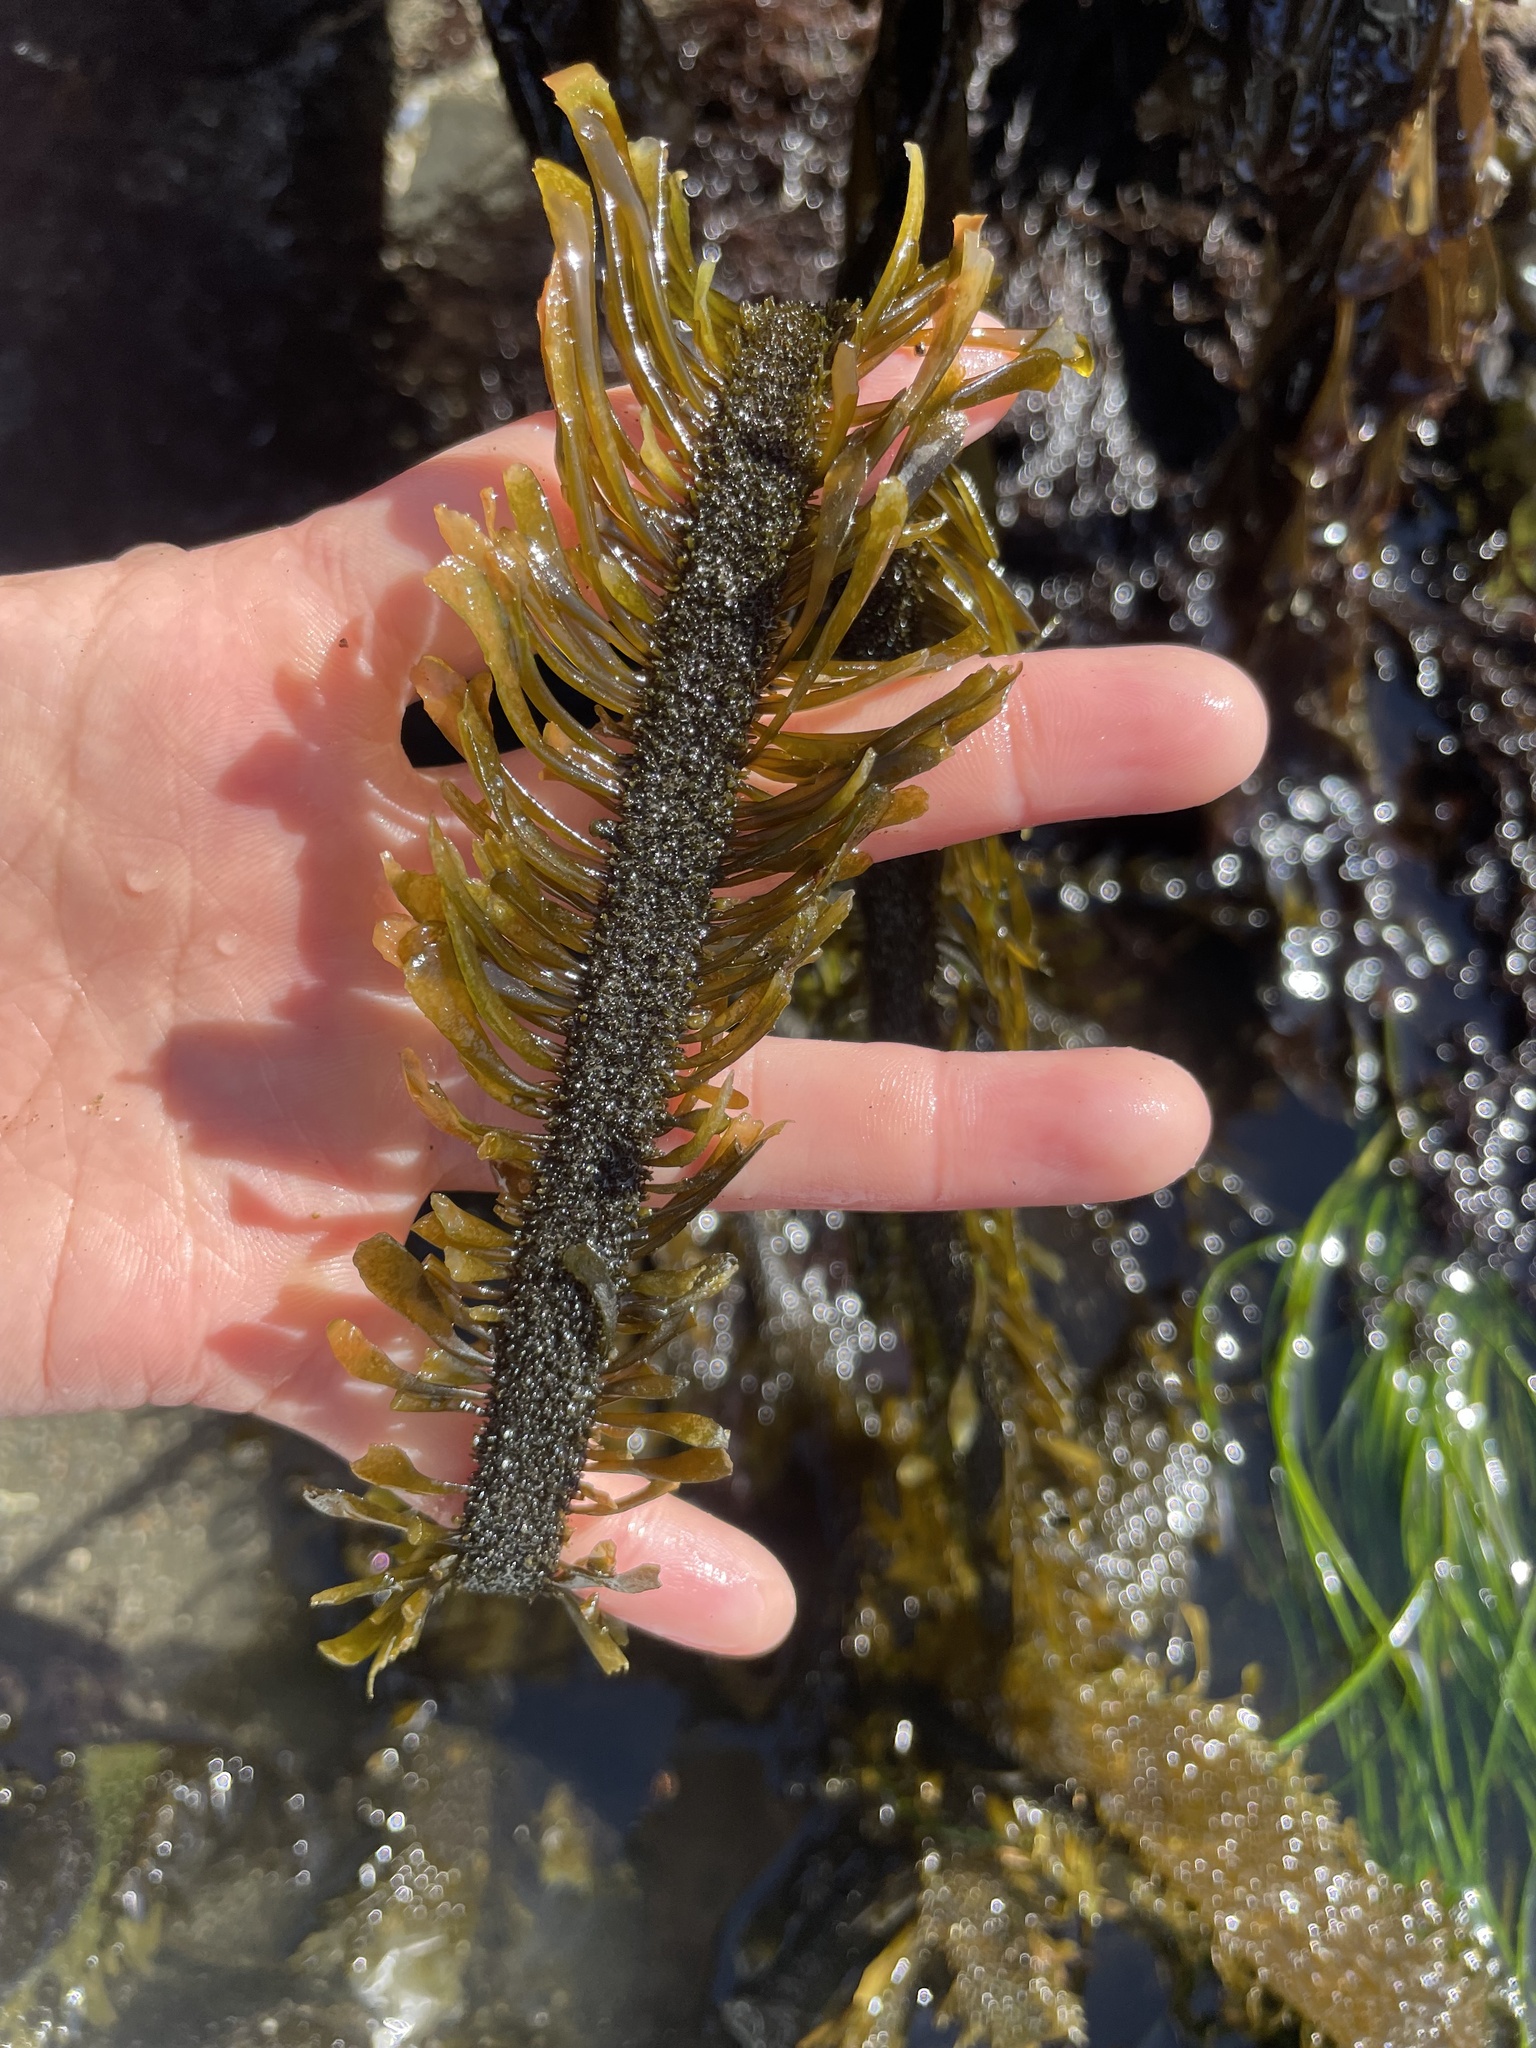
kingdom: Chromista
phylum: Ochrophyta
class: Phaeophyceae
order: Laminariales
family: Lessoniaceae
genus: Egregia
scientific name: Egregia menziesii
